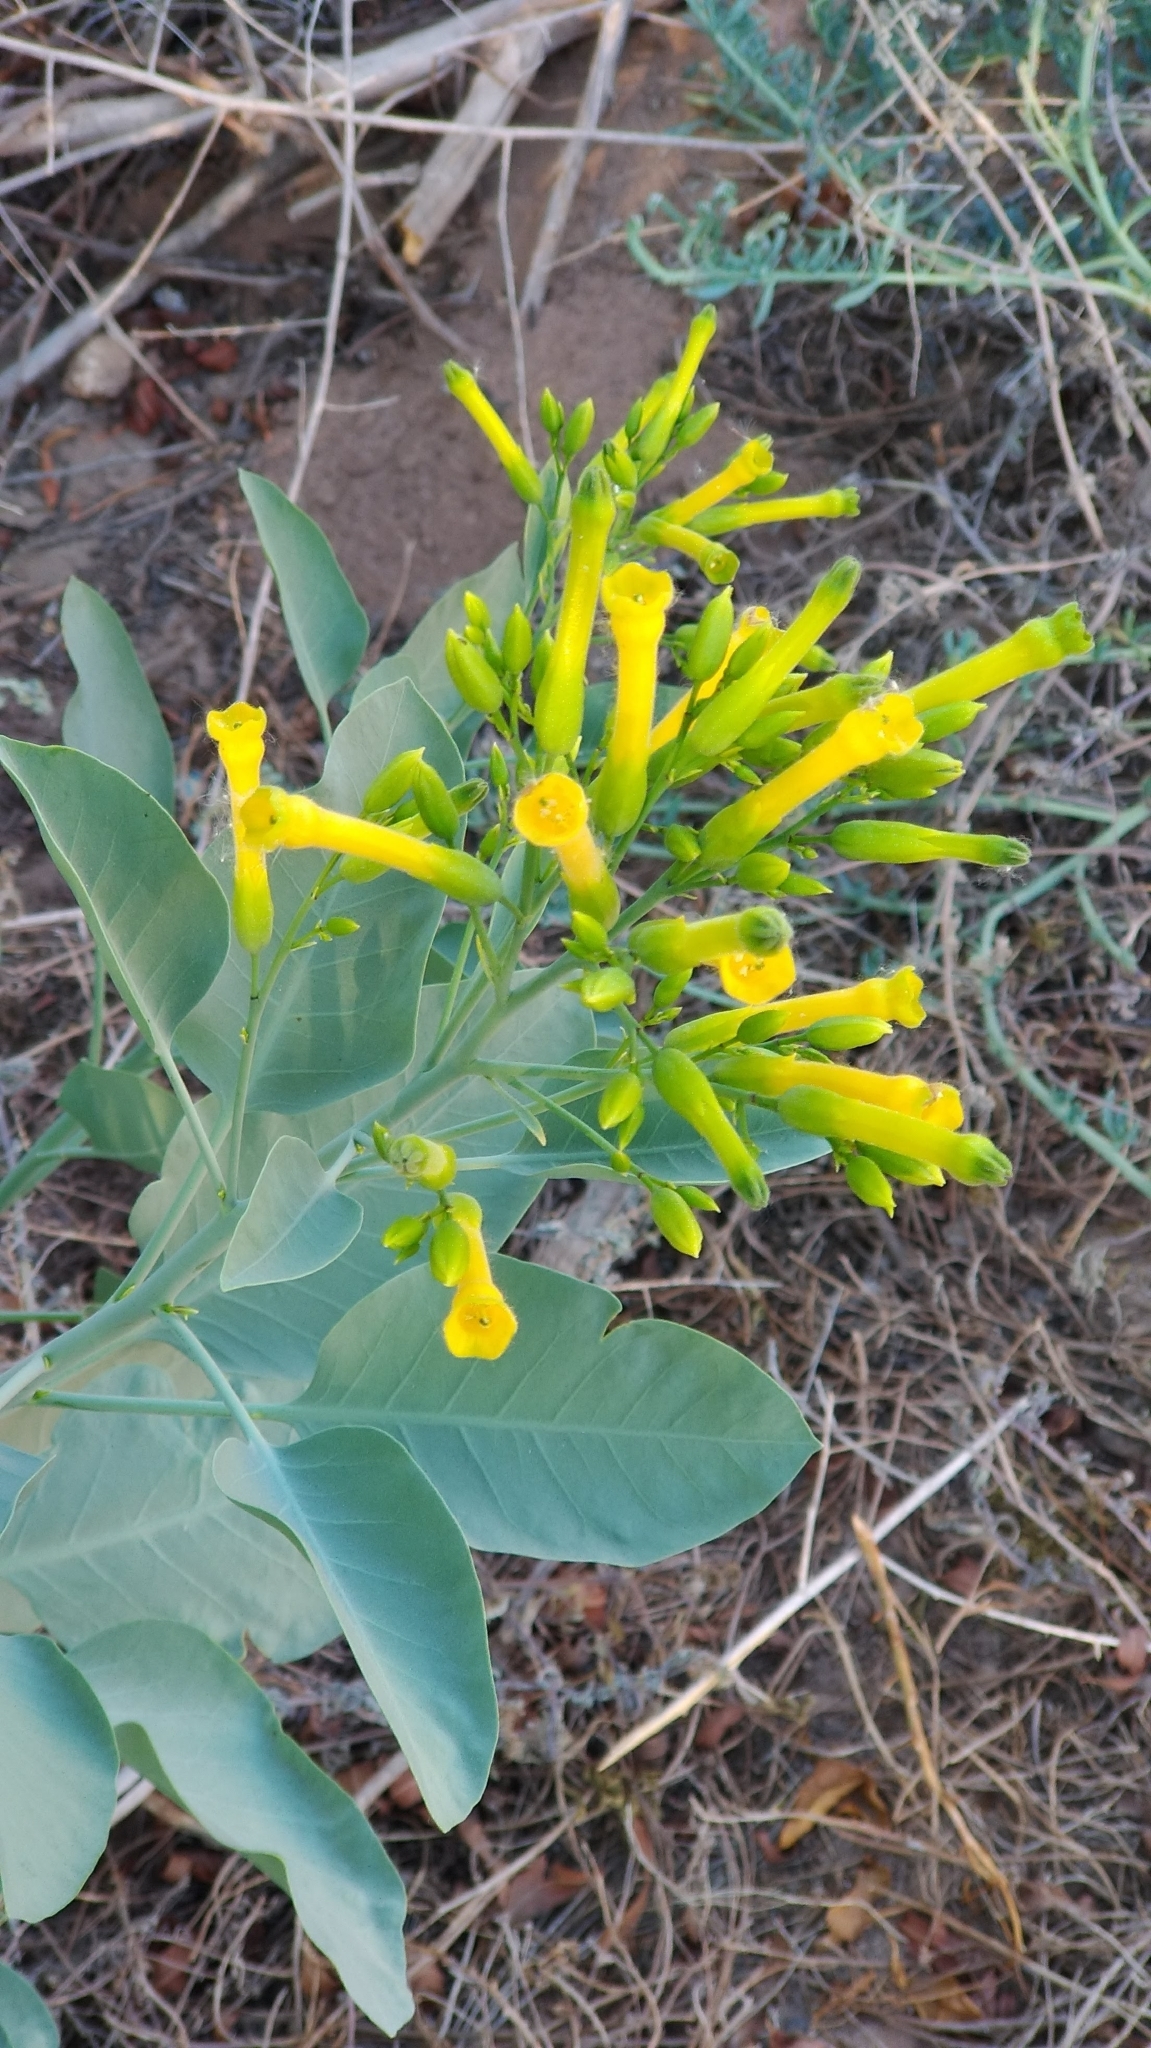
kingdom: Plantae
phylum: Tracheophyta
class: Magnoliopsida
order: Solanales
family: Solanaceae
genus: Nicotiana
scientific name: Nicotiana glauca
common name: Tree tobacco
